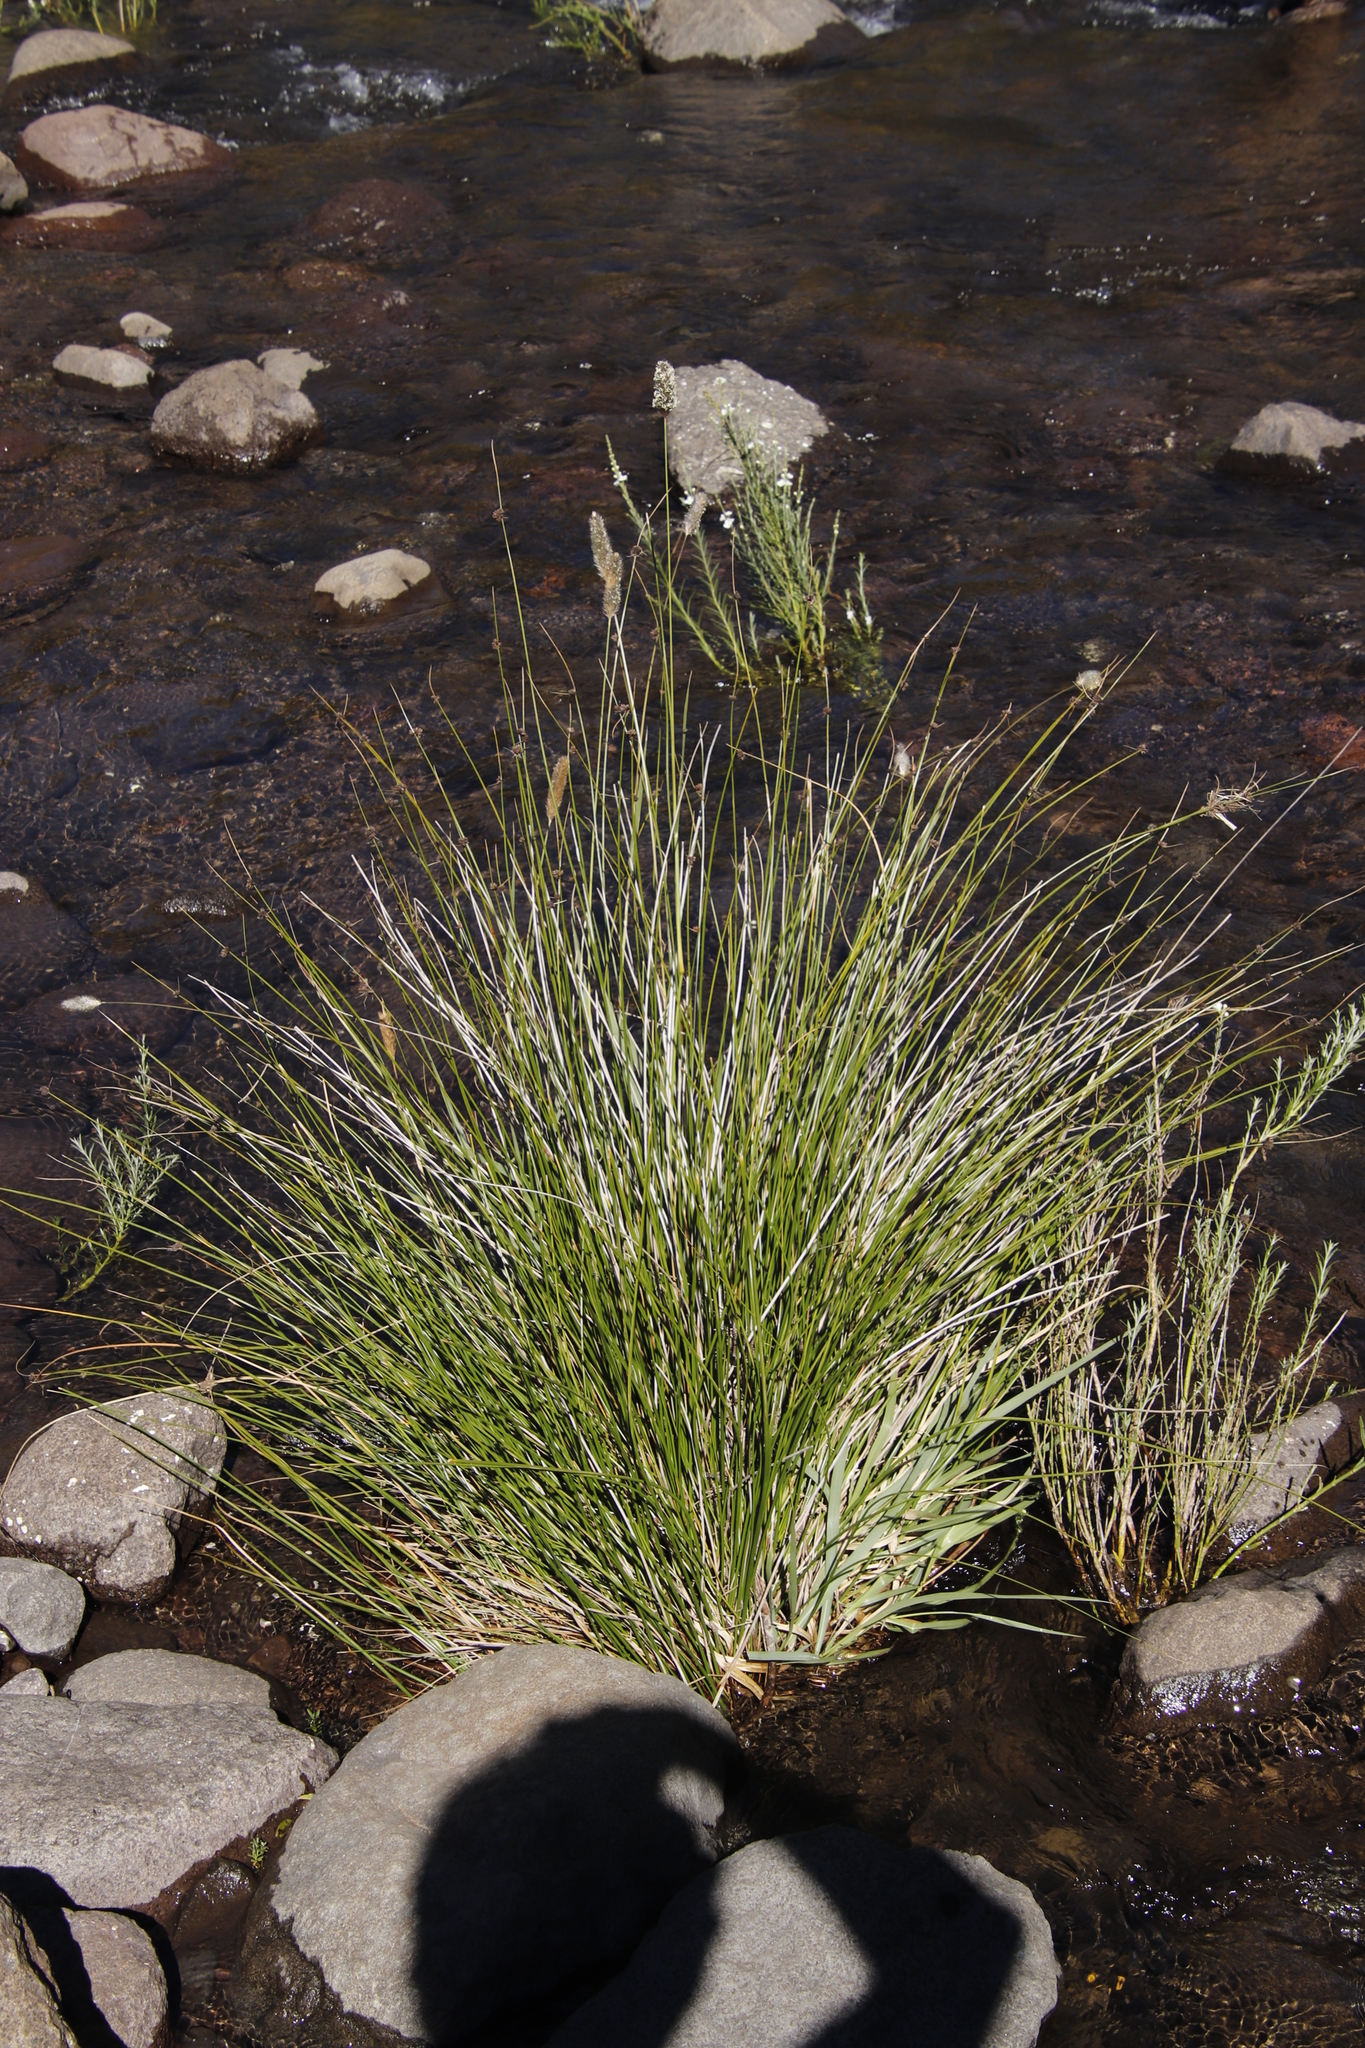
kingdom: Plantae
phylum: Tracheophyta
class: Liliopsida
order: Poales
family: Poaceae
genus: Fingerhuthia
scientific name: Fingerhuthia sesleriiformis
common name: Thimble grass
